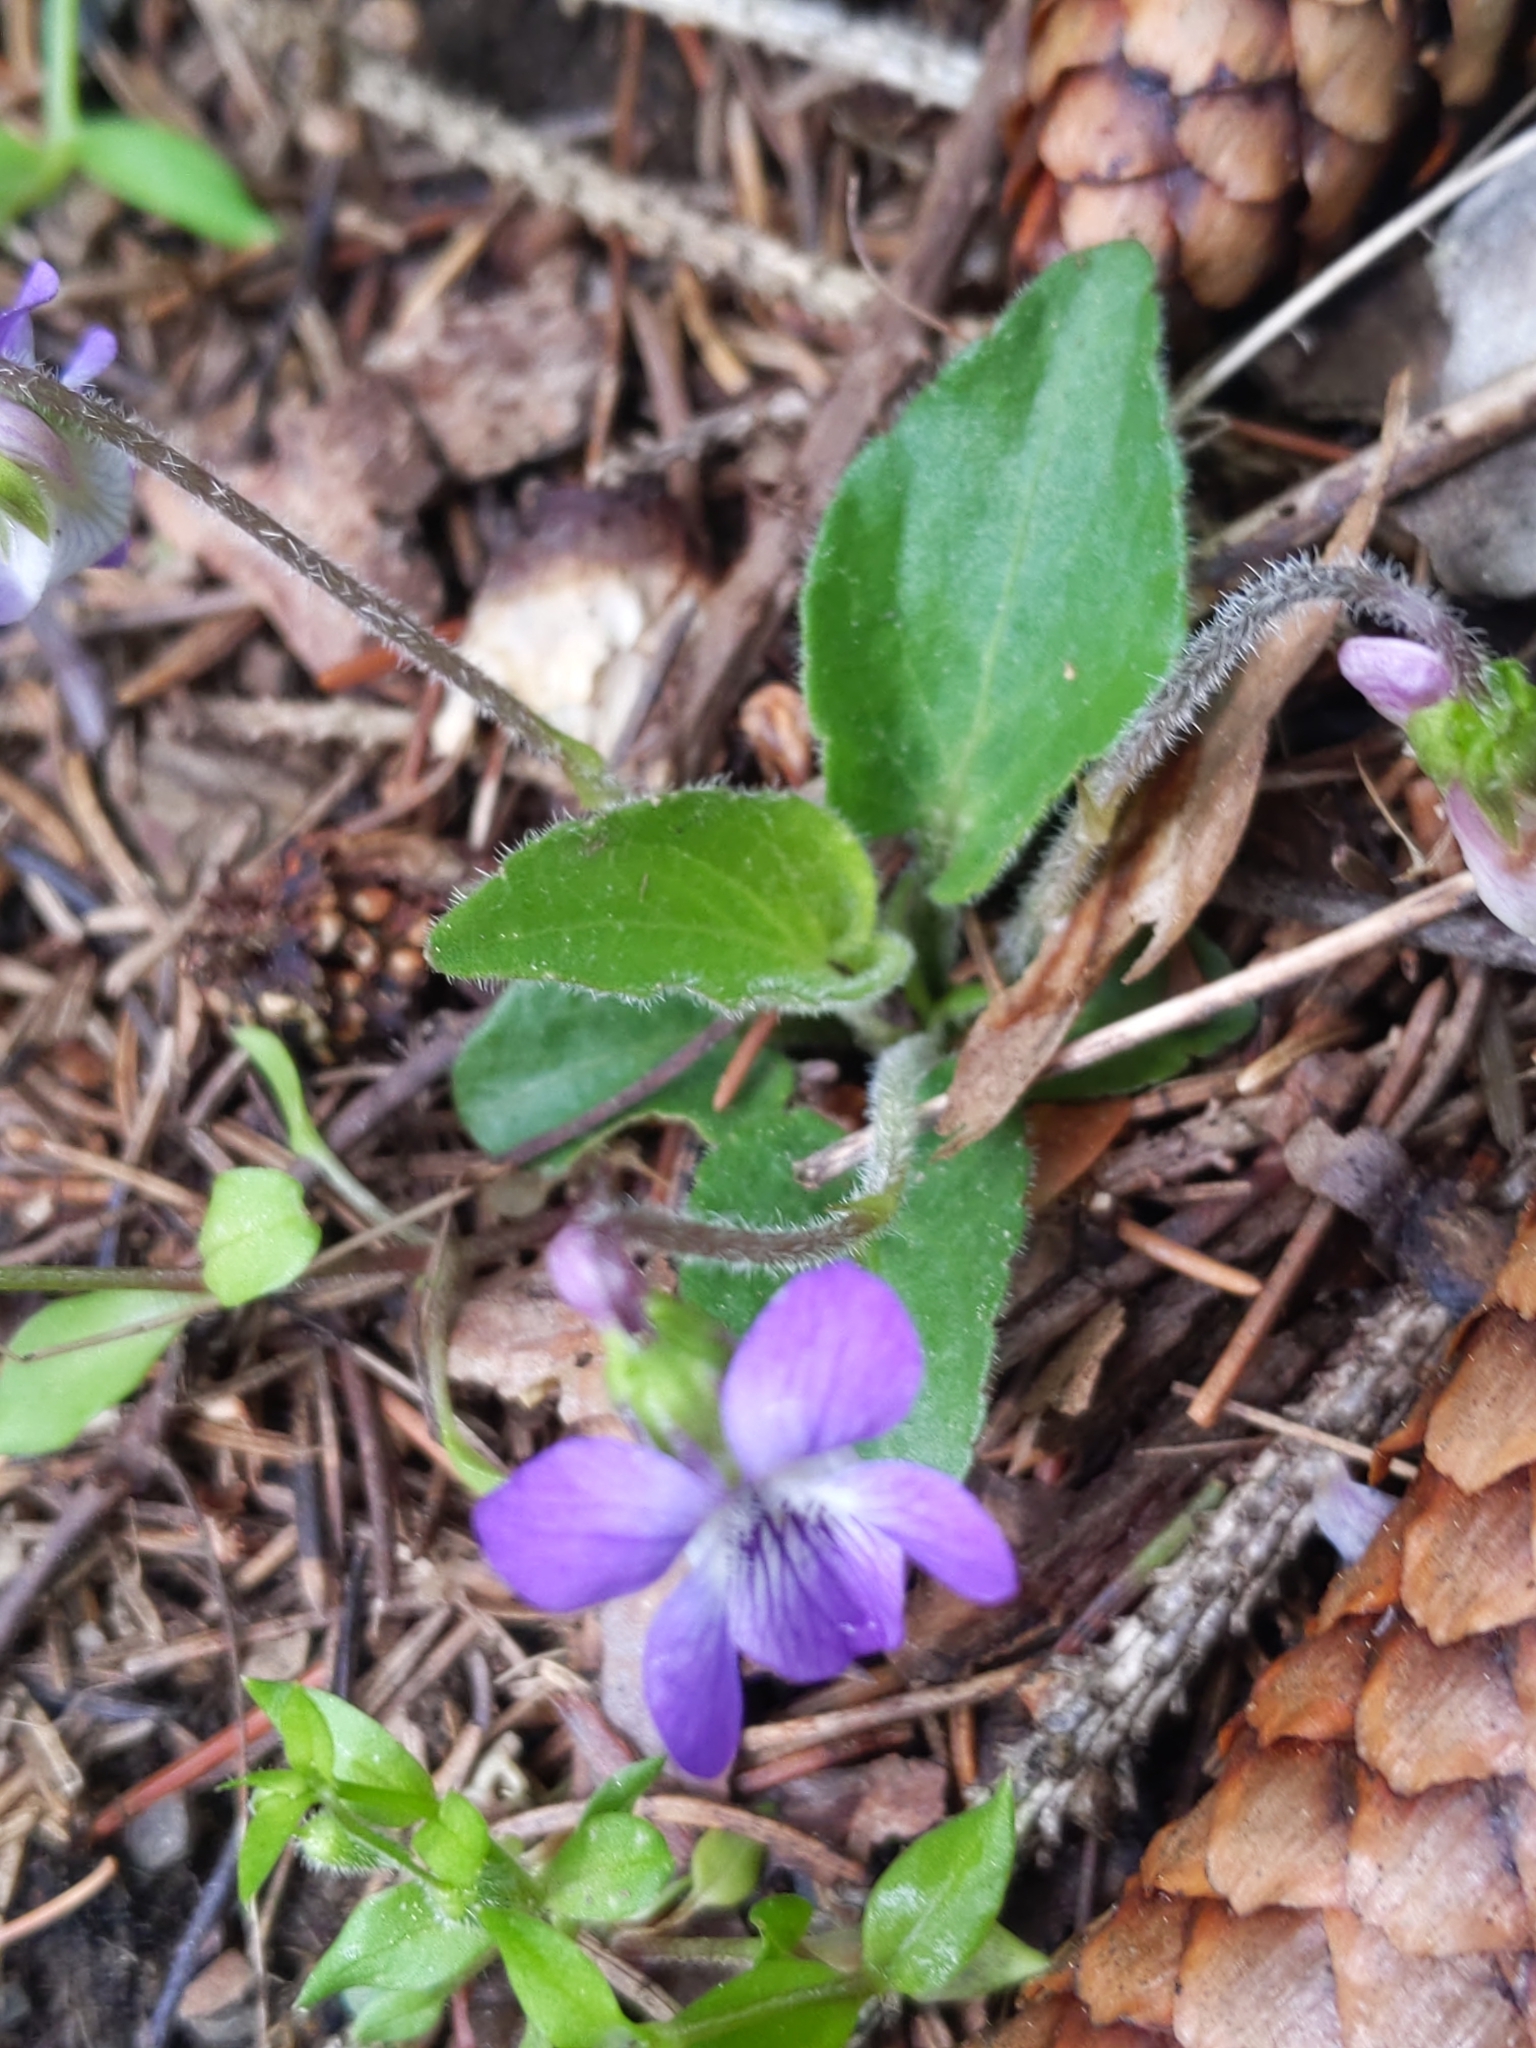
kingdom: Plantae
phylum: Tracheophyta
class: Magnoliopsida
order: Malpighiales
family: Violaceae
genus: Viola
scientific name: Viola fimbriatula
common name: Sand violet
